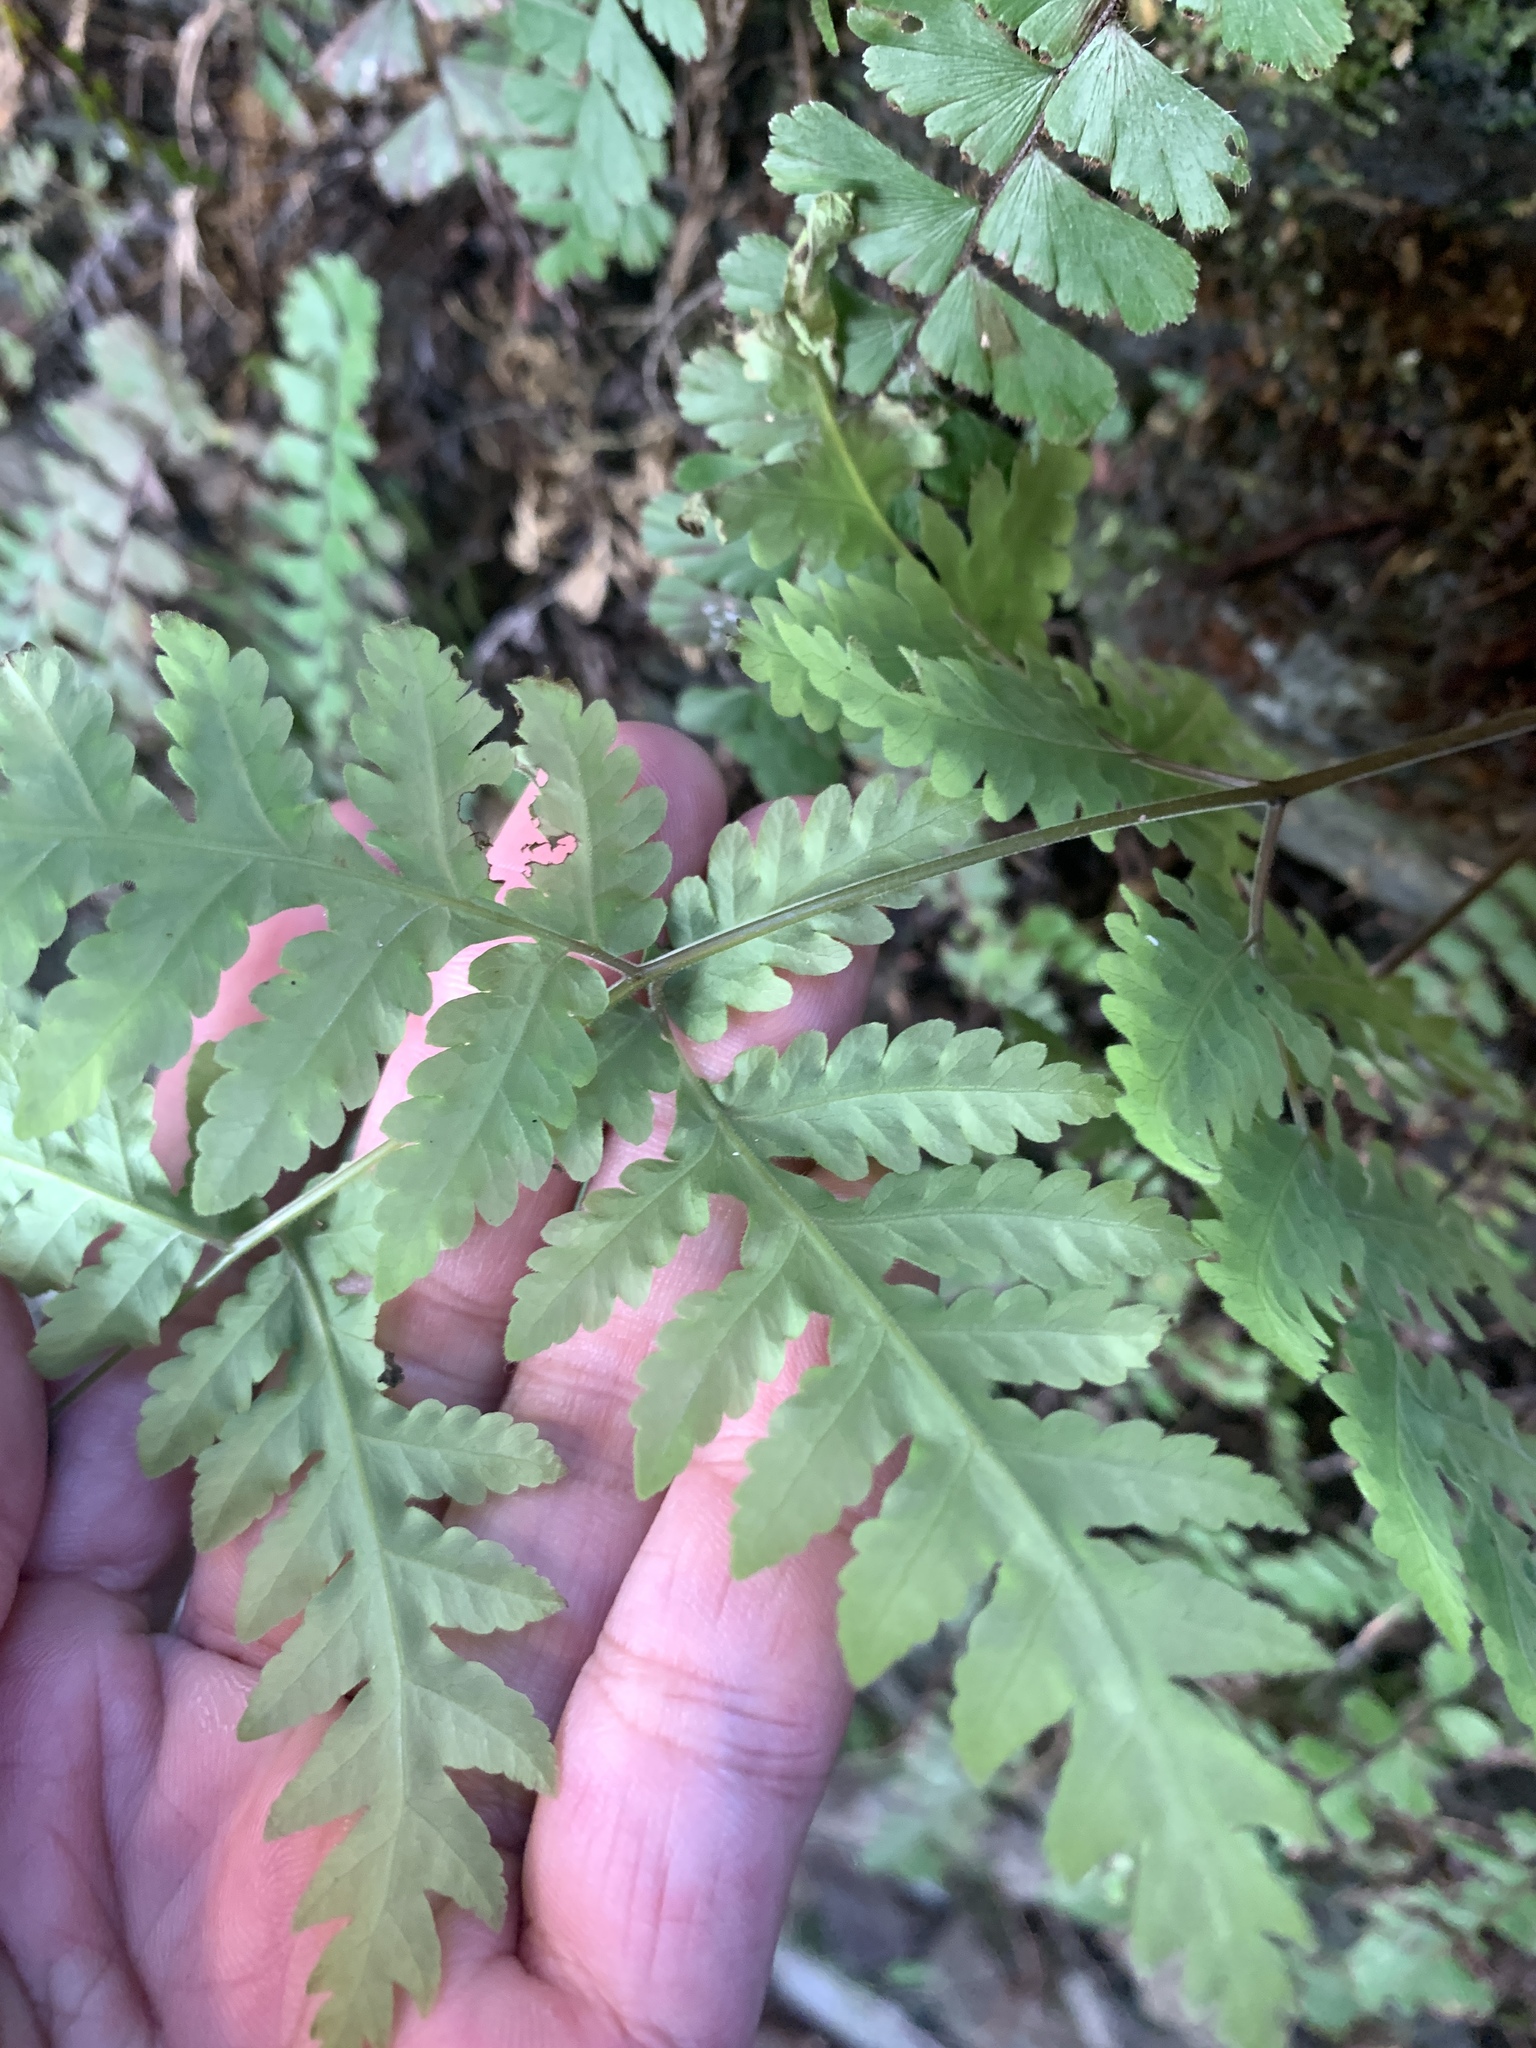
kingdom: Plantae
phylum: Tracheophyta
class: Polypodiopsida
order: Polypodiales
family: Tectariaceae
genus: Tectaria
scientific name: Tectaria membranacea
